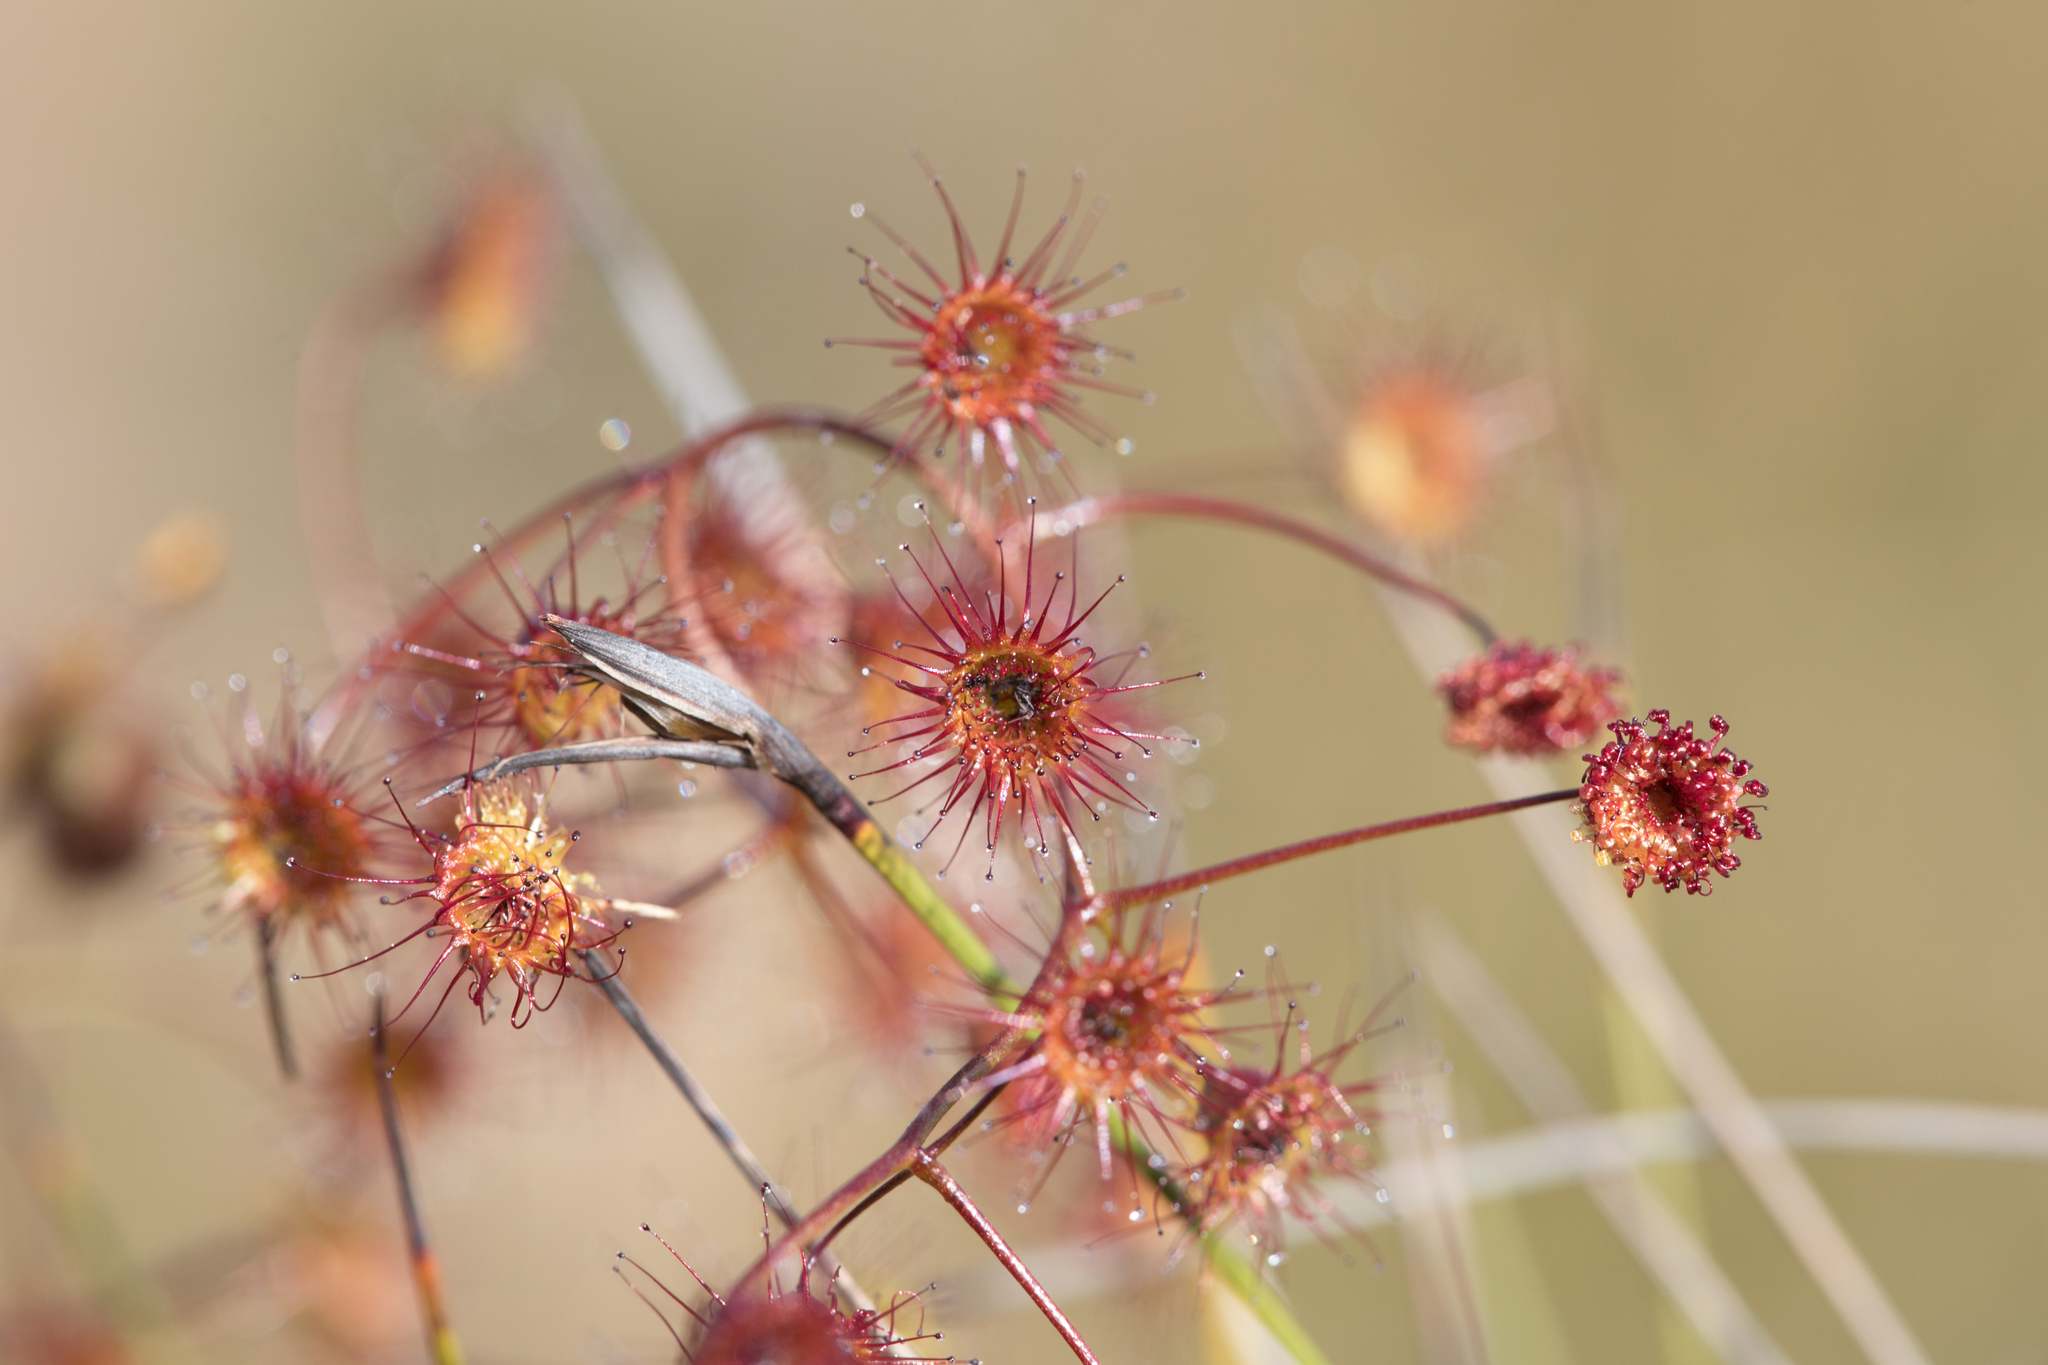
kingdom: Plantae
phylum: Tracheophyta
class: Magnoliopsida
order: Caryophyllales
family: Droseraceae
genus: Drosera
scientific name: Drosera planchonii
